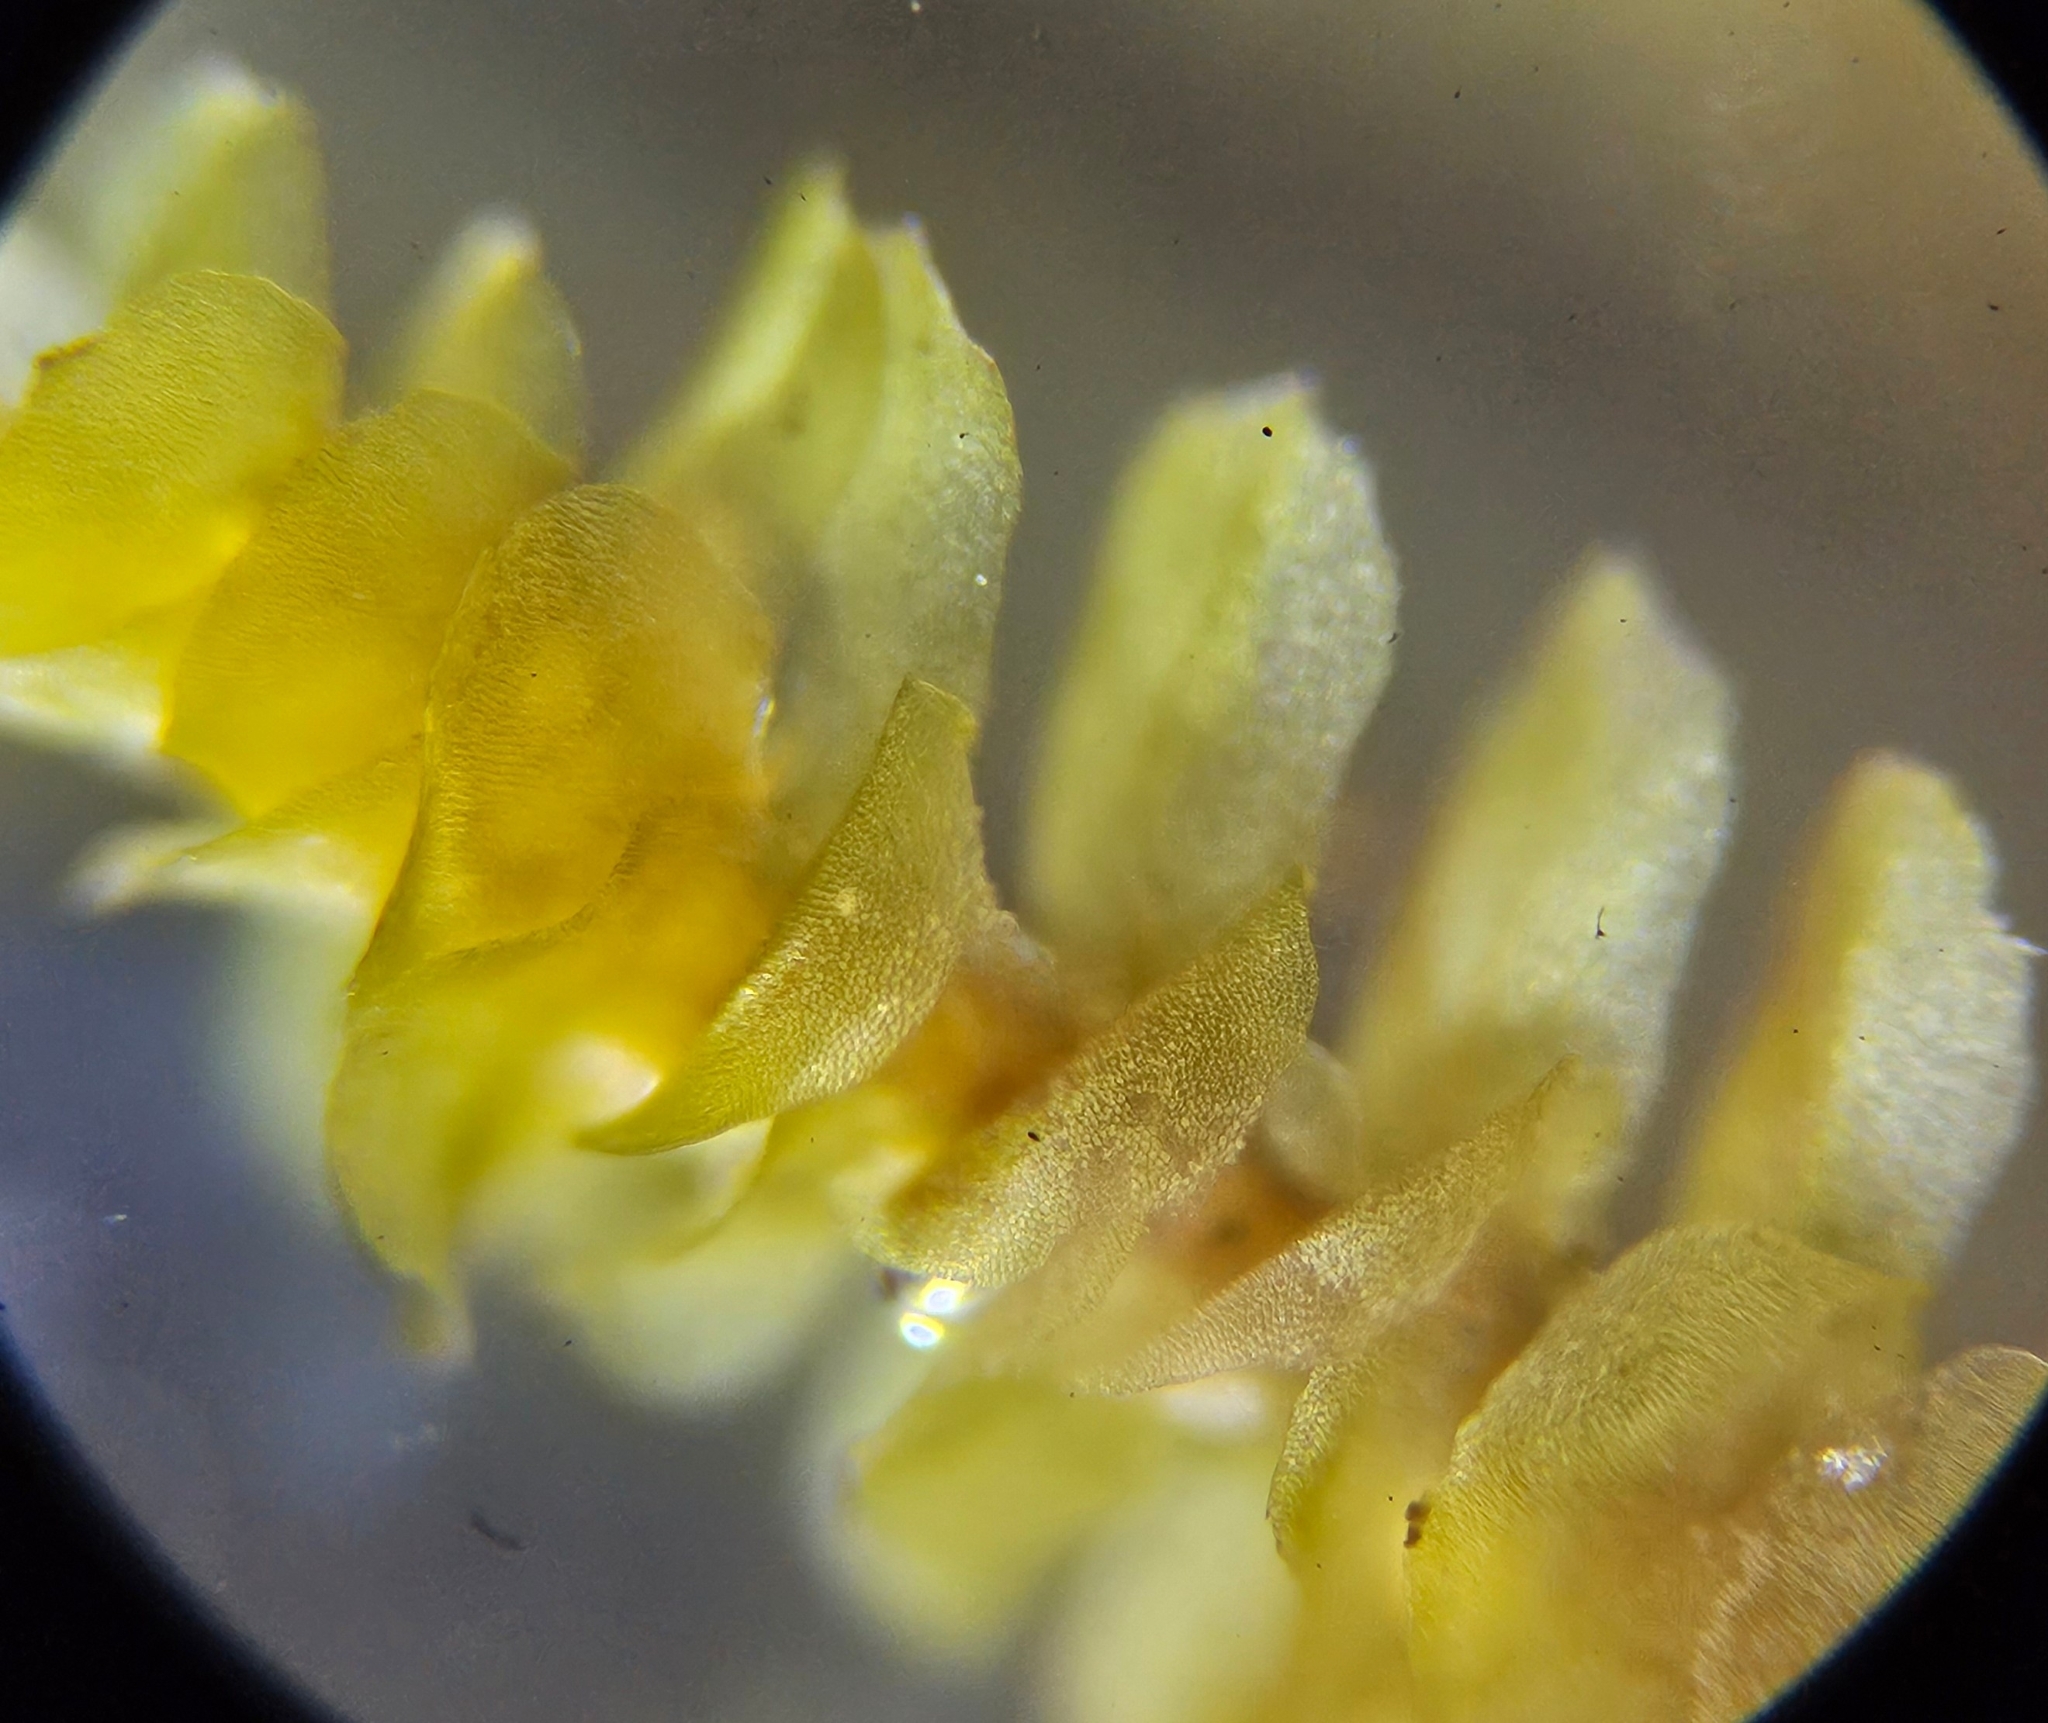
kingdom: Plantae
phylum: Marchantiophyta
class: Jungermanniopsida
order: Jungermanniales
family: Scapaniaceae
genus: Scapania
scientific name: Scapania gracilis
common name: Western earwort
